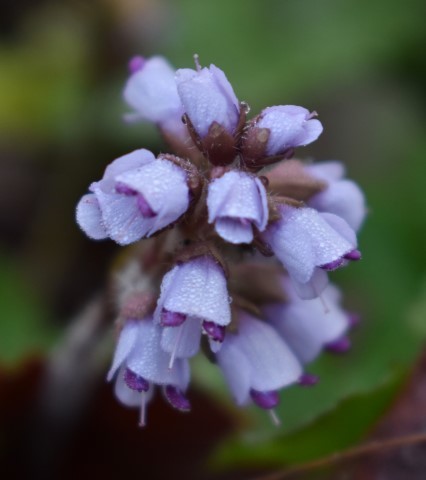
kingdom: Plantae
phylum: Tracheophyta
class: Magnoliopsida
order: Lamiales
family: Plantaginaceae
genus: Synthyris
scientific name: Synthyris reniformis
